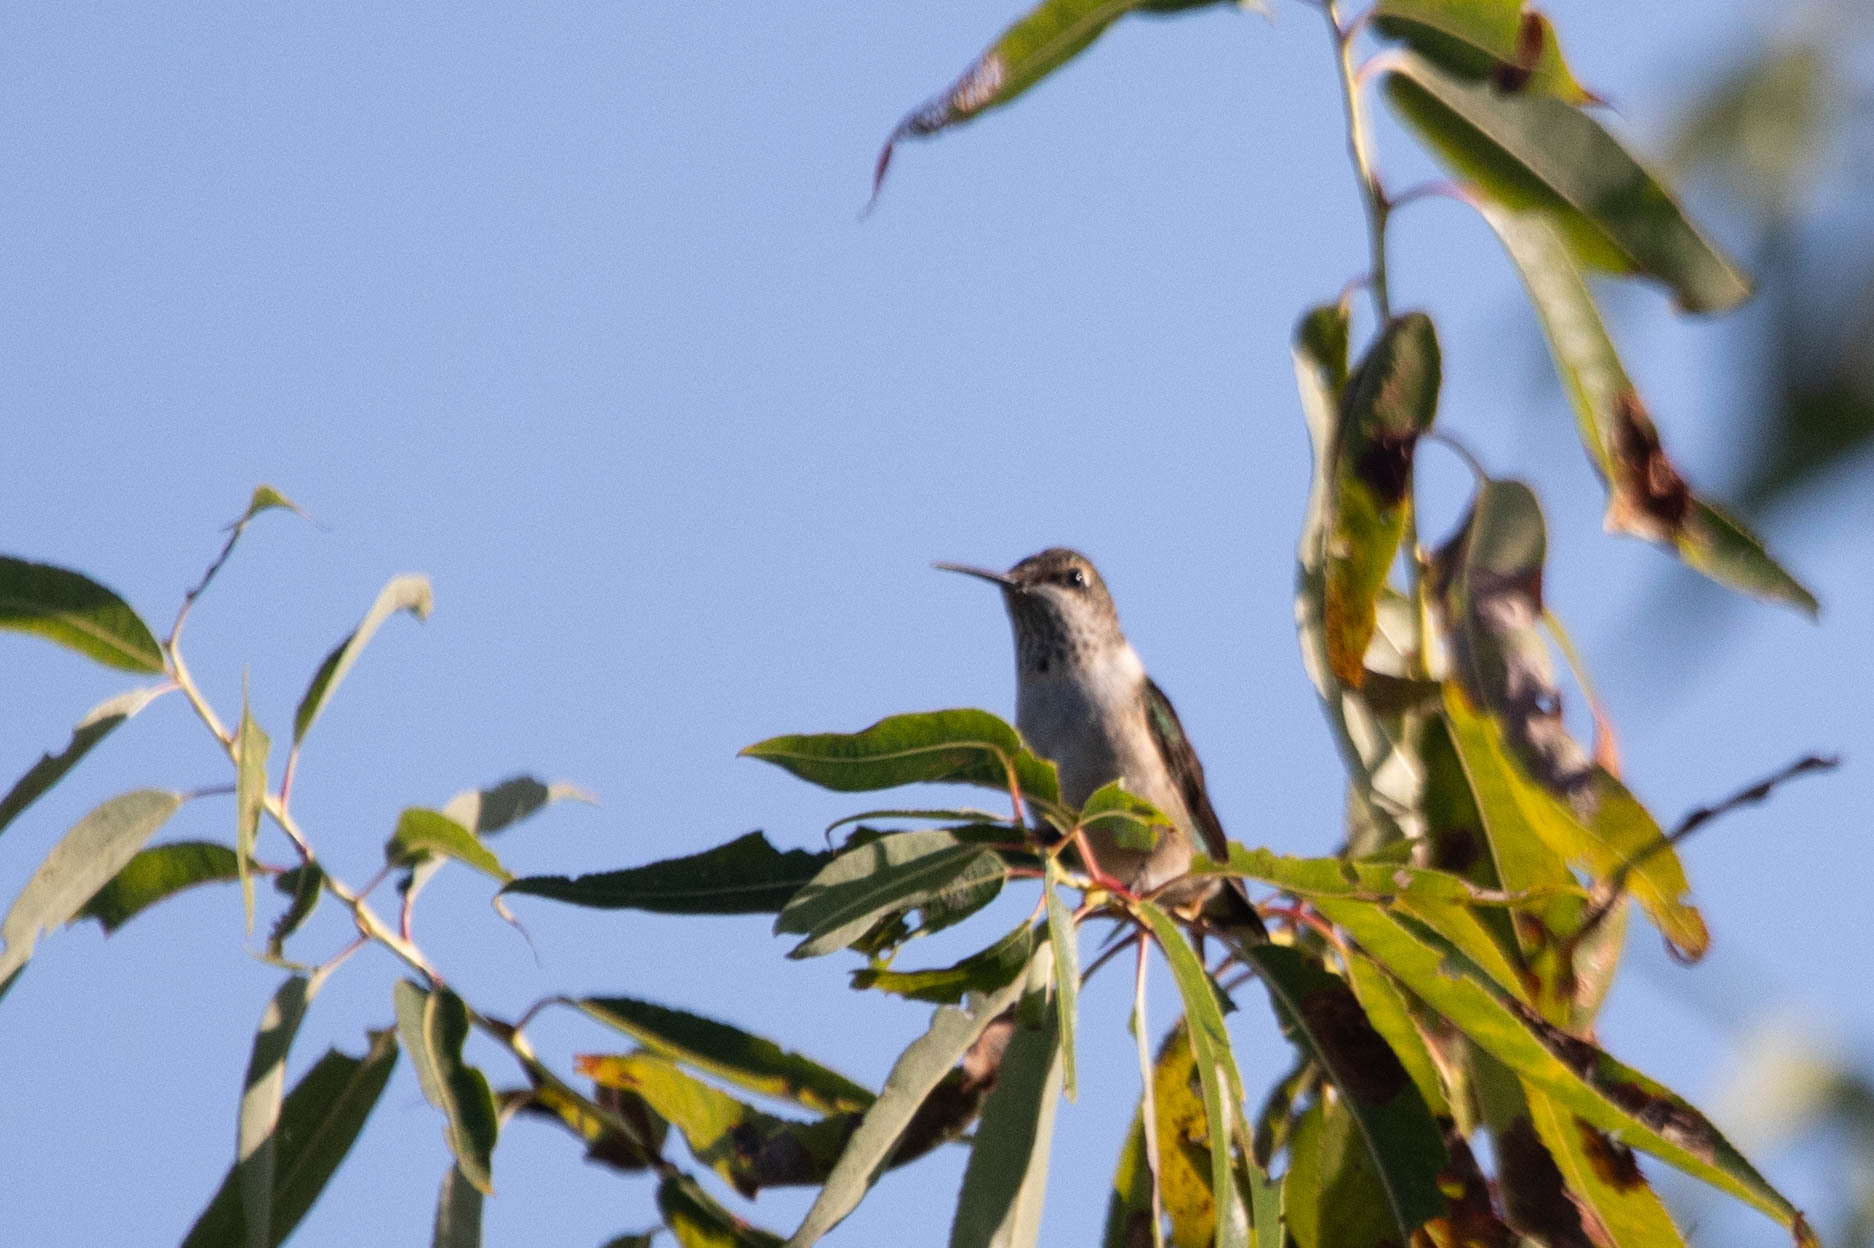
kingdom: Animalia
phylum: Chordata
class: Aves
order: Apodiformes
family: Trochilidae
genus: Archilochus
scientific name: Archilochus colubris
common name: Ruby-throated hummingbird
